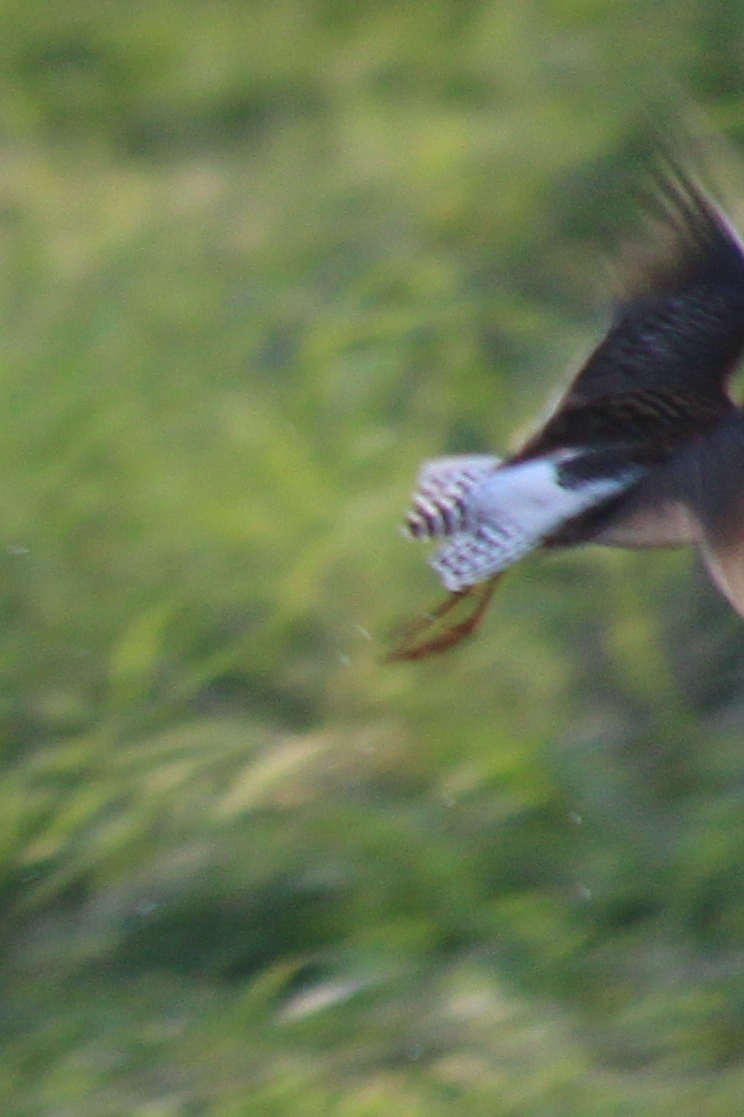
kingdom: Animalia
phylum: Chordata
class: Aves
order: Charadriiformes
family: Scolopacidae
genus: Tringa
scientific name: Tringa glareola
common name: Wood sandpiper
